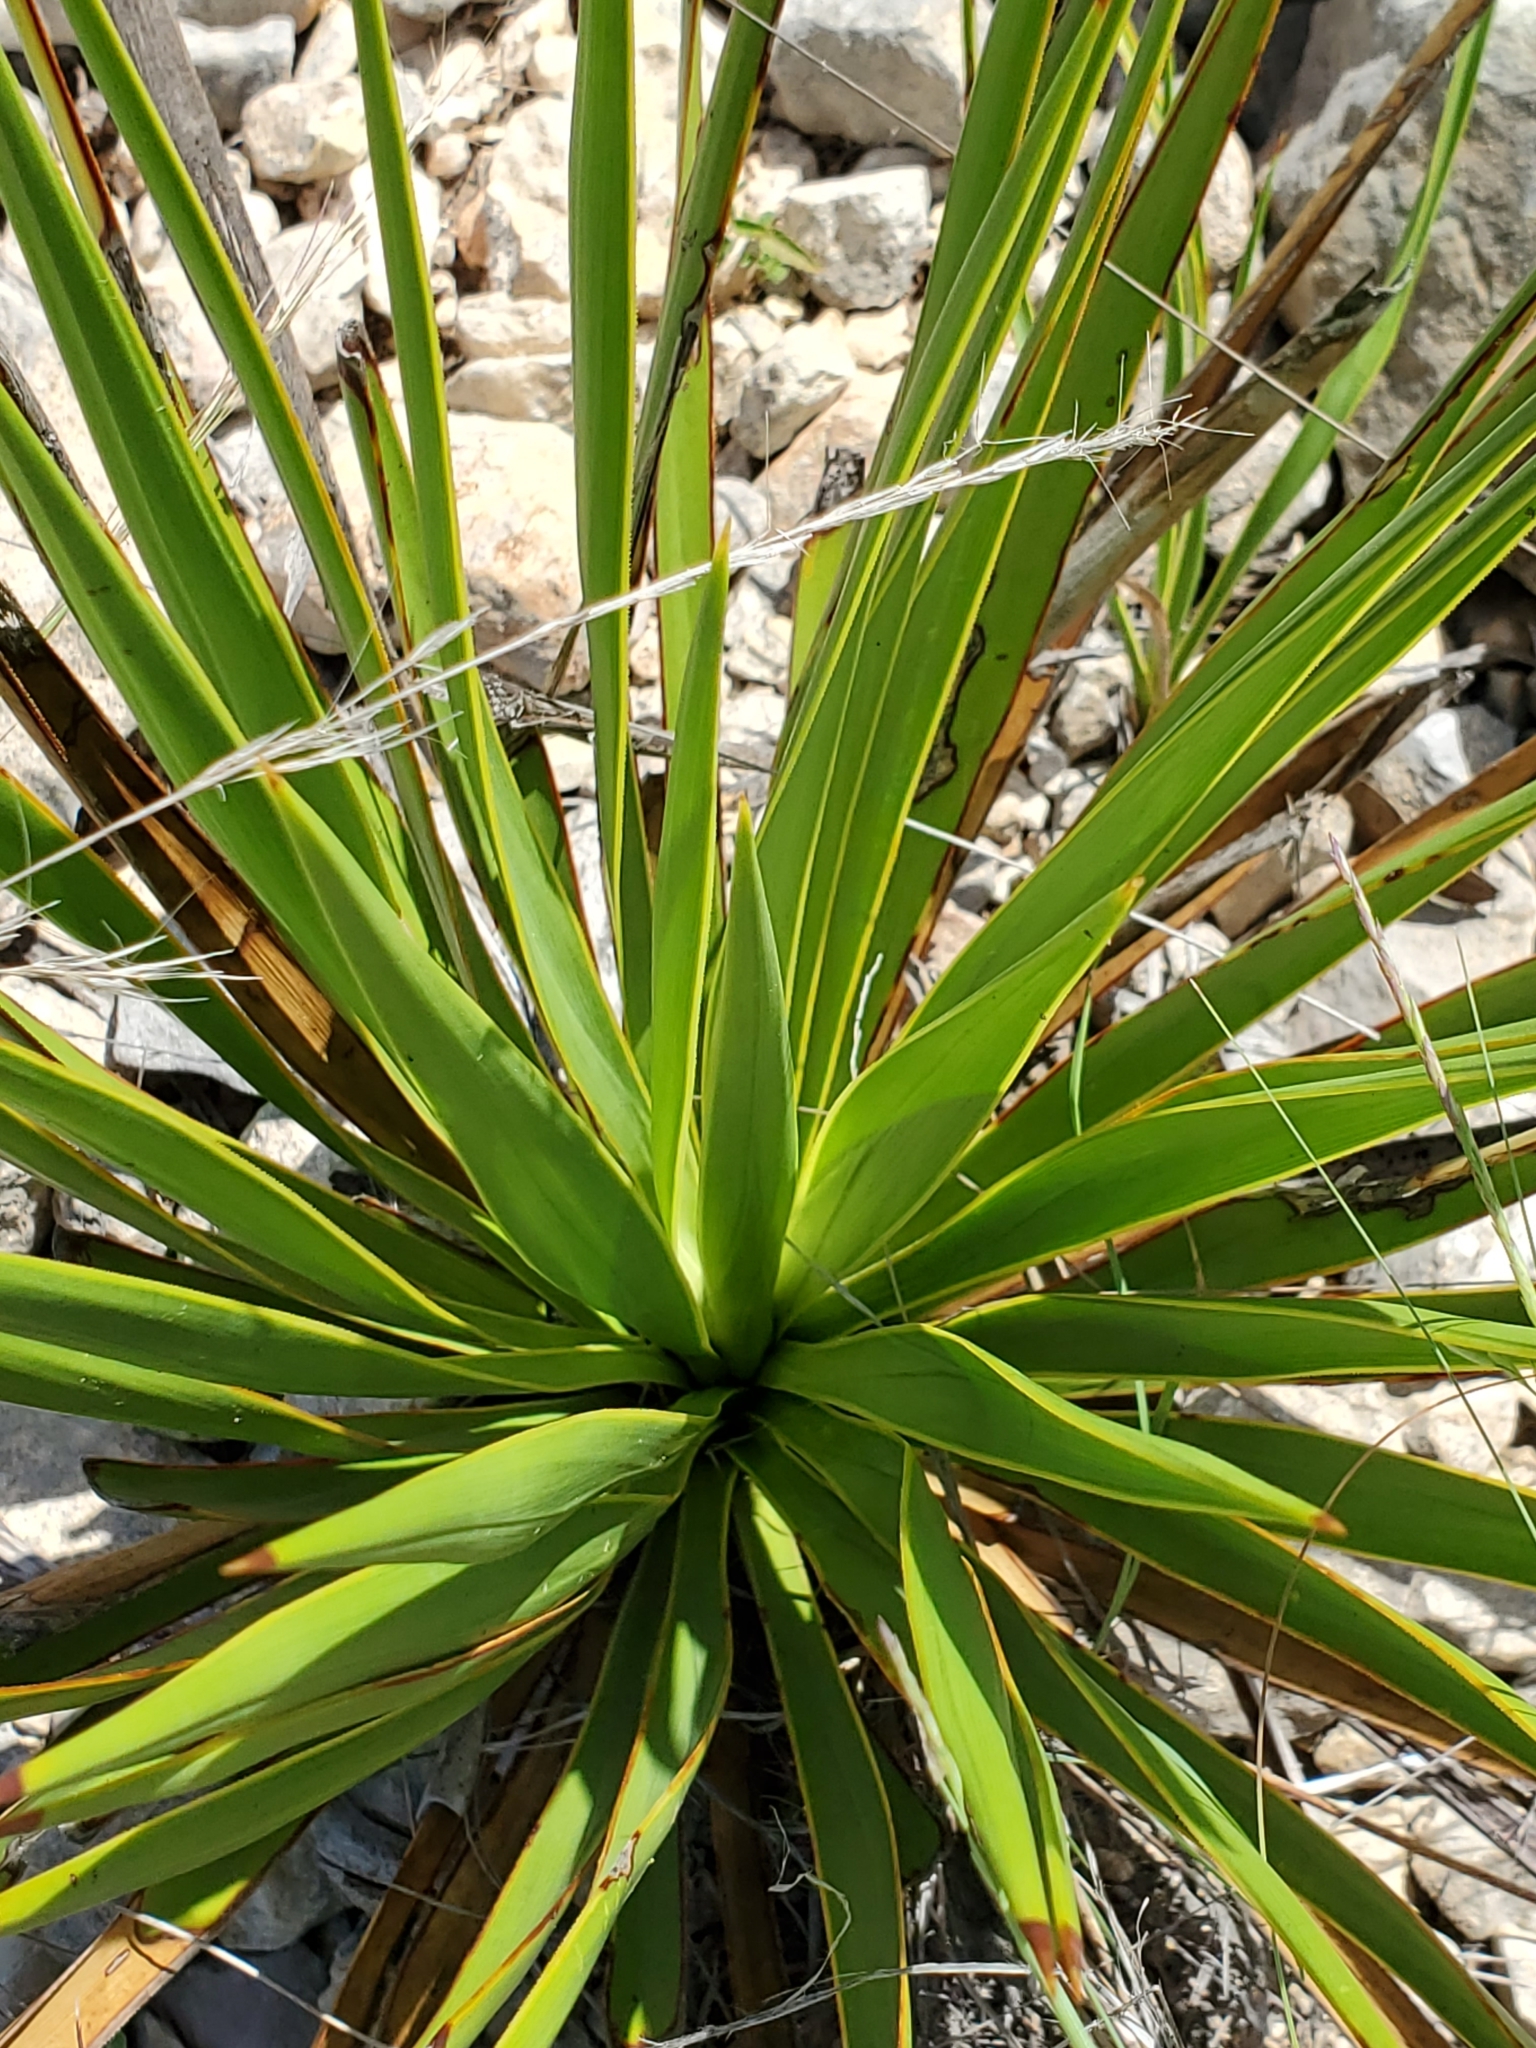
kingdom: Plantae
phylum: Tracheophyta
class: Liliopsida
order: Asparagales
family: Asparagaceae
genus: Yucca
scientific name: Yucca rupicola
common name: Twisted-leaf spanish-dagger
